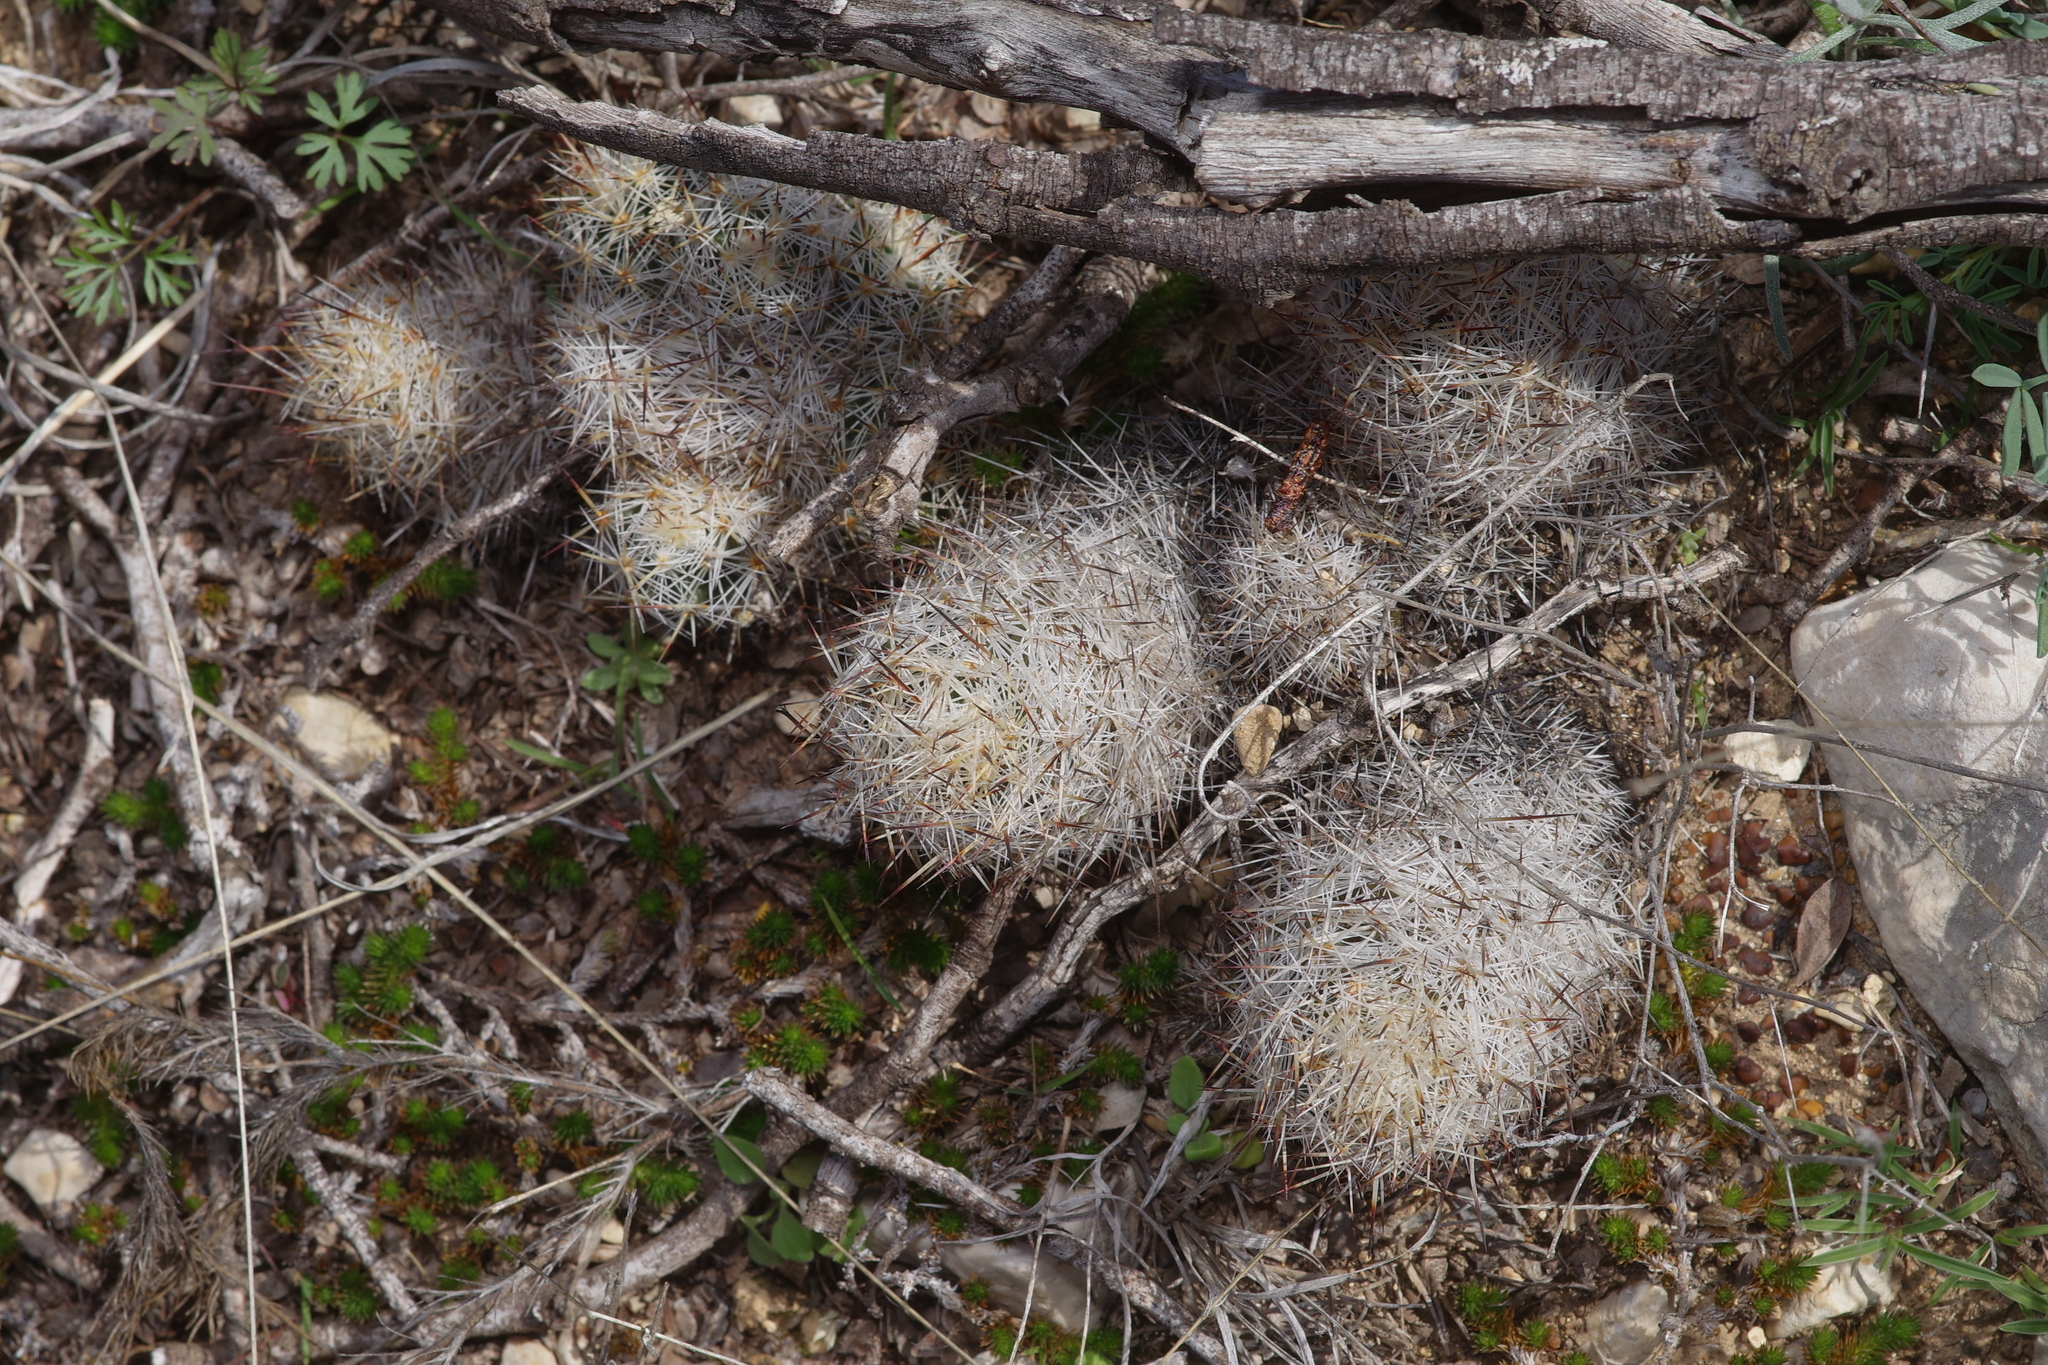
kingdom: Plantae
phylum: Tracheophyta
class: Magnoliopsida
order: Caryophyllales
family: Cactaceae
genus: Pelecyphora
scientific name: Pelecyphora emskoetteriana
